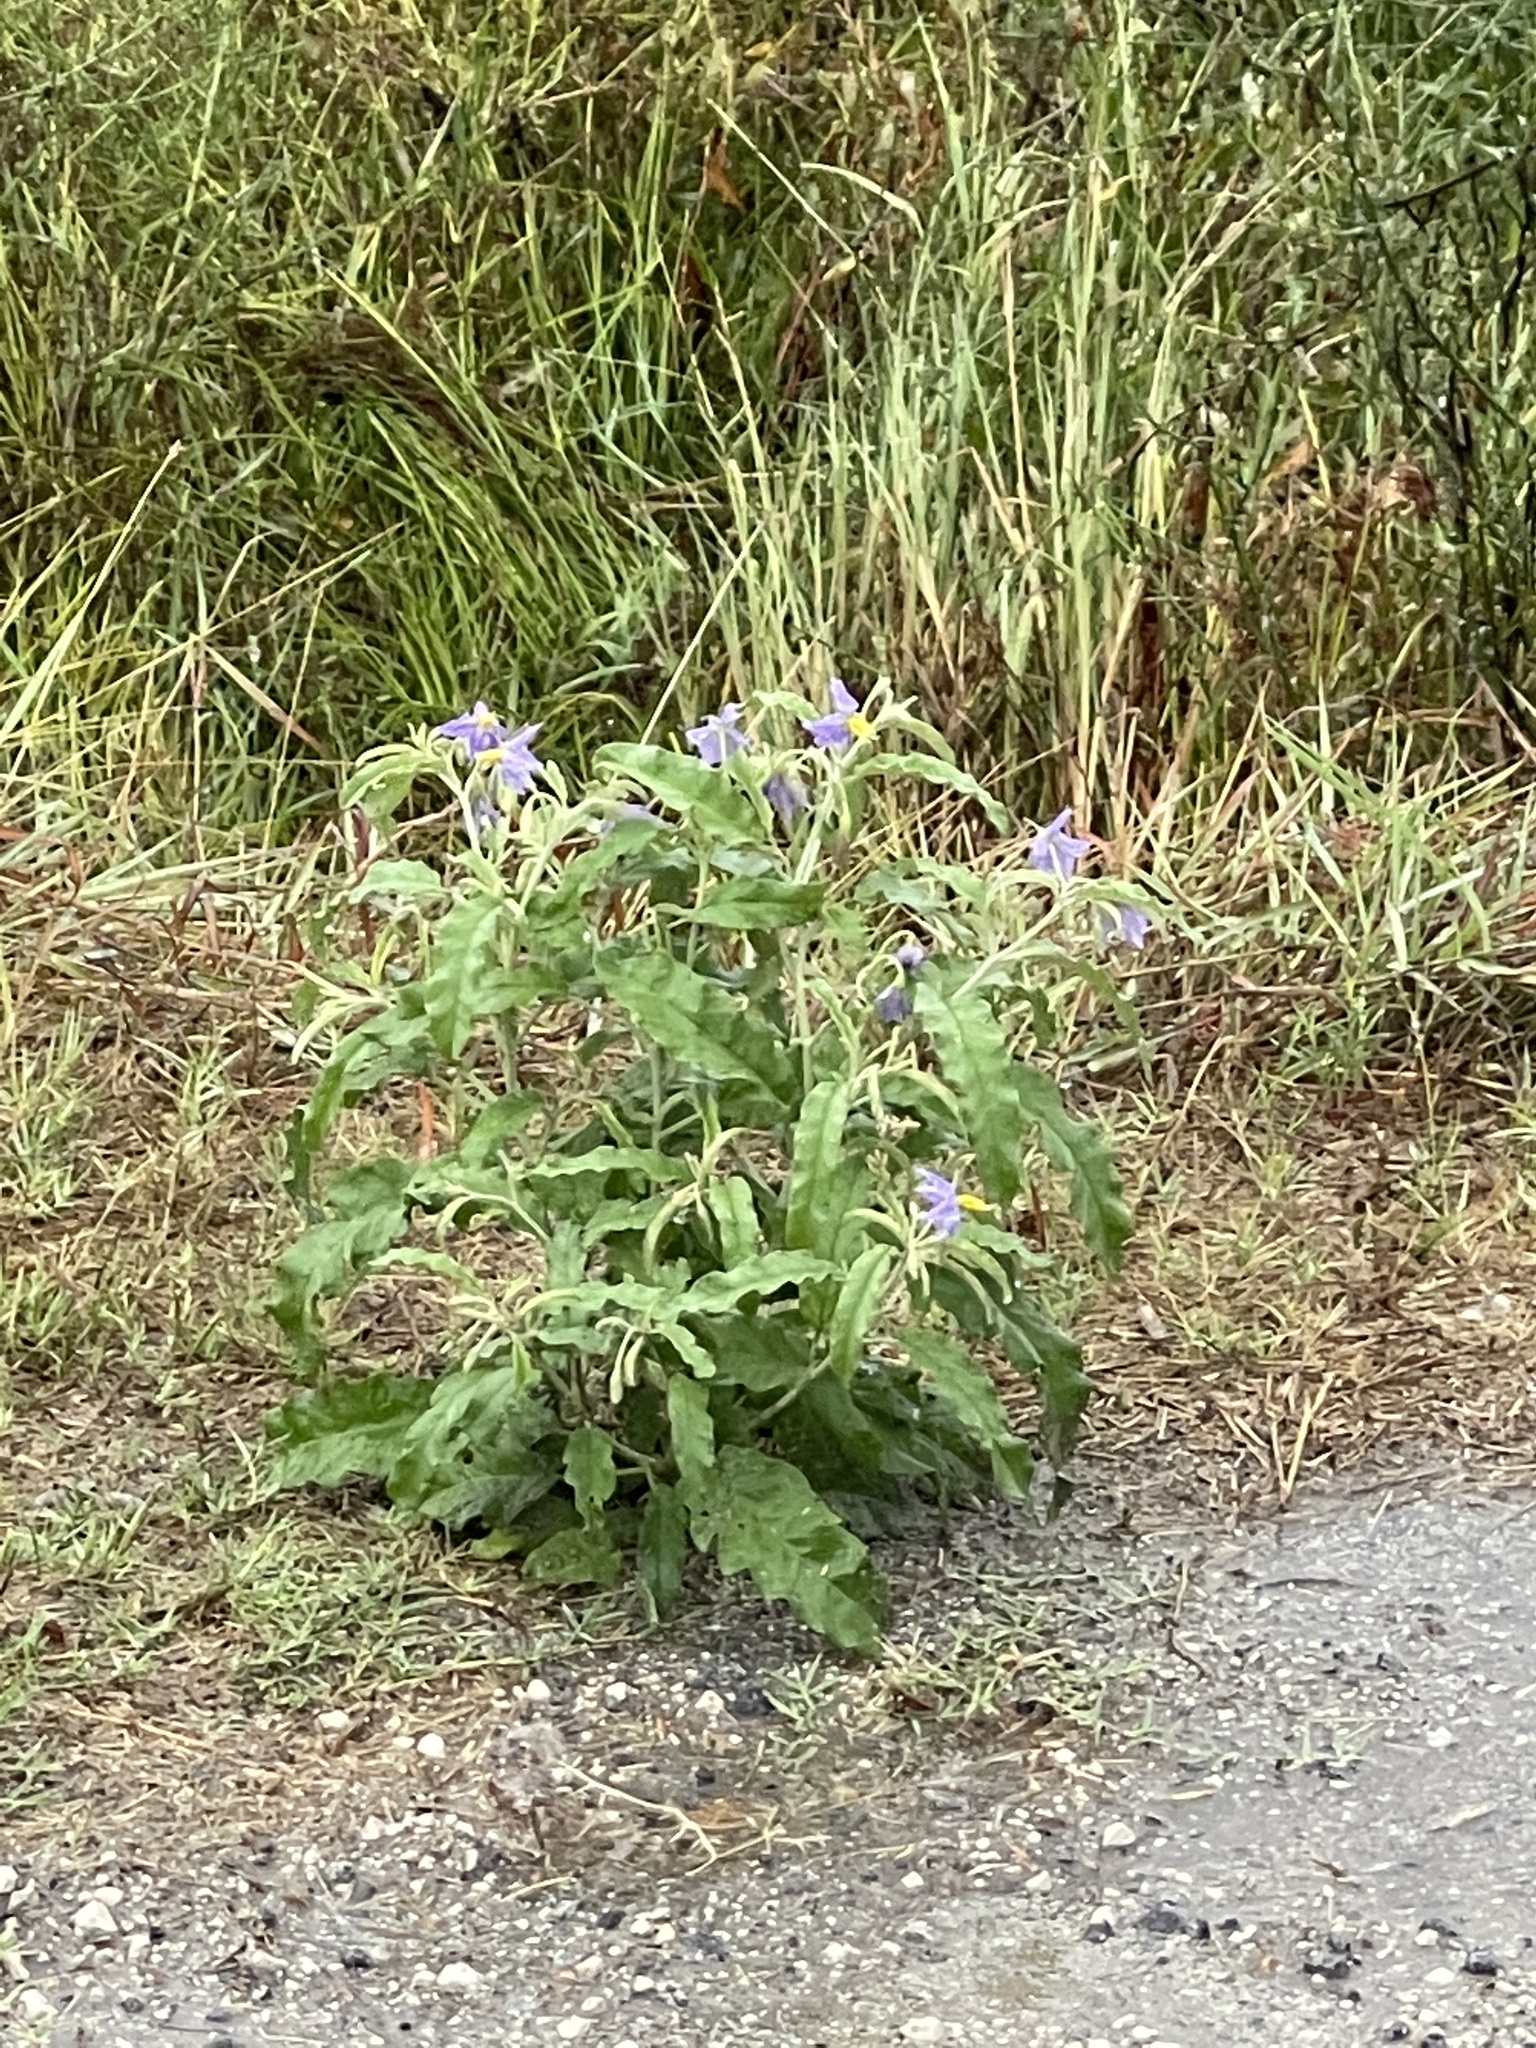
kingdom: Plantae
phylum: Tracheophyta
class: Magnoliopsida
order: Solanales
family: Solanaceae
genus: Solanum
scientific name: Solanum elaeagnifolium
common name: Silverleaf nightshade
